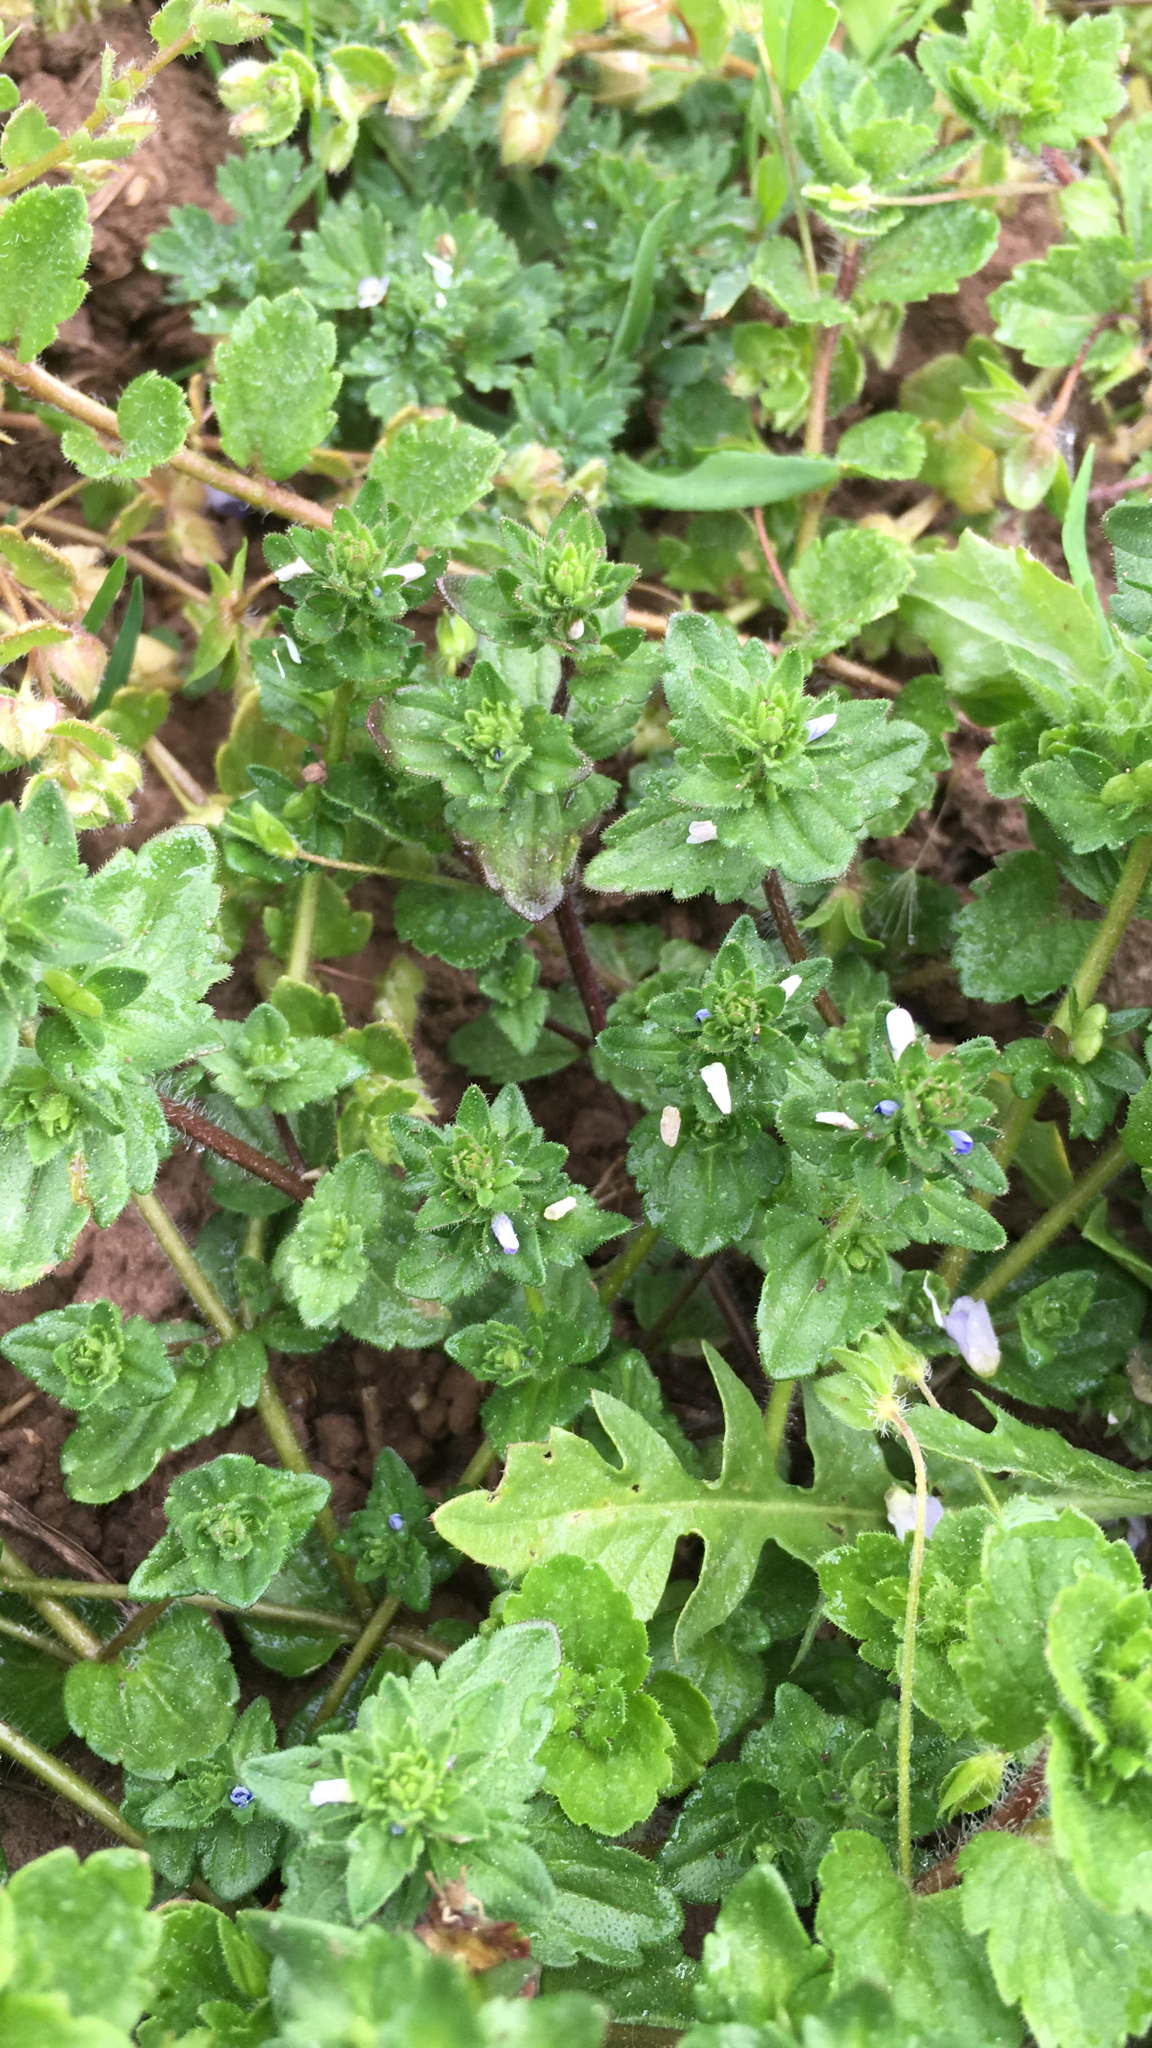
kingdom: Plantae
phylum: Tracheophyta
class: Magnoliopsida
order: Lamiales
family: Plantaginaceae
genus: Veronica
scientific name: Veronica arvensis
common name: Corn speedwell
